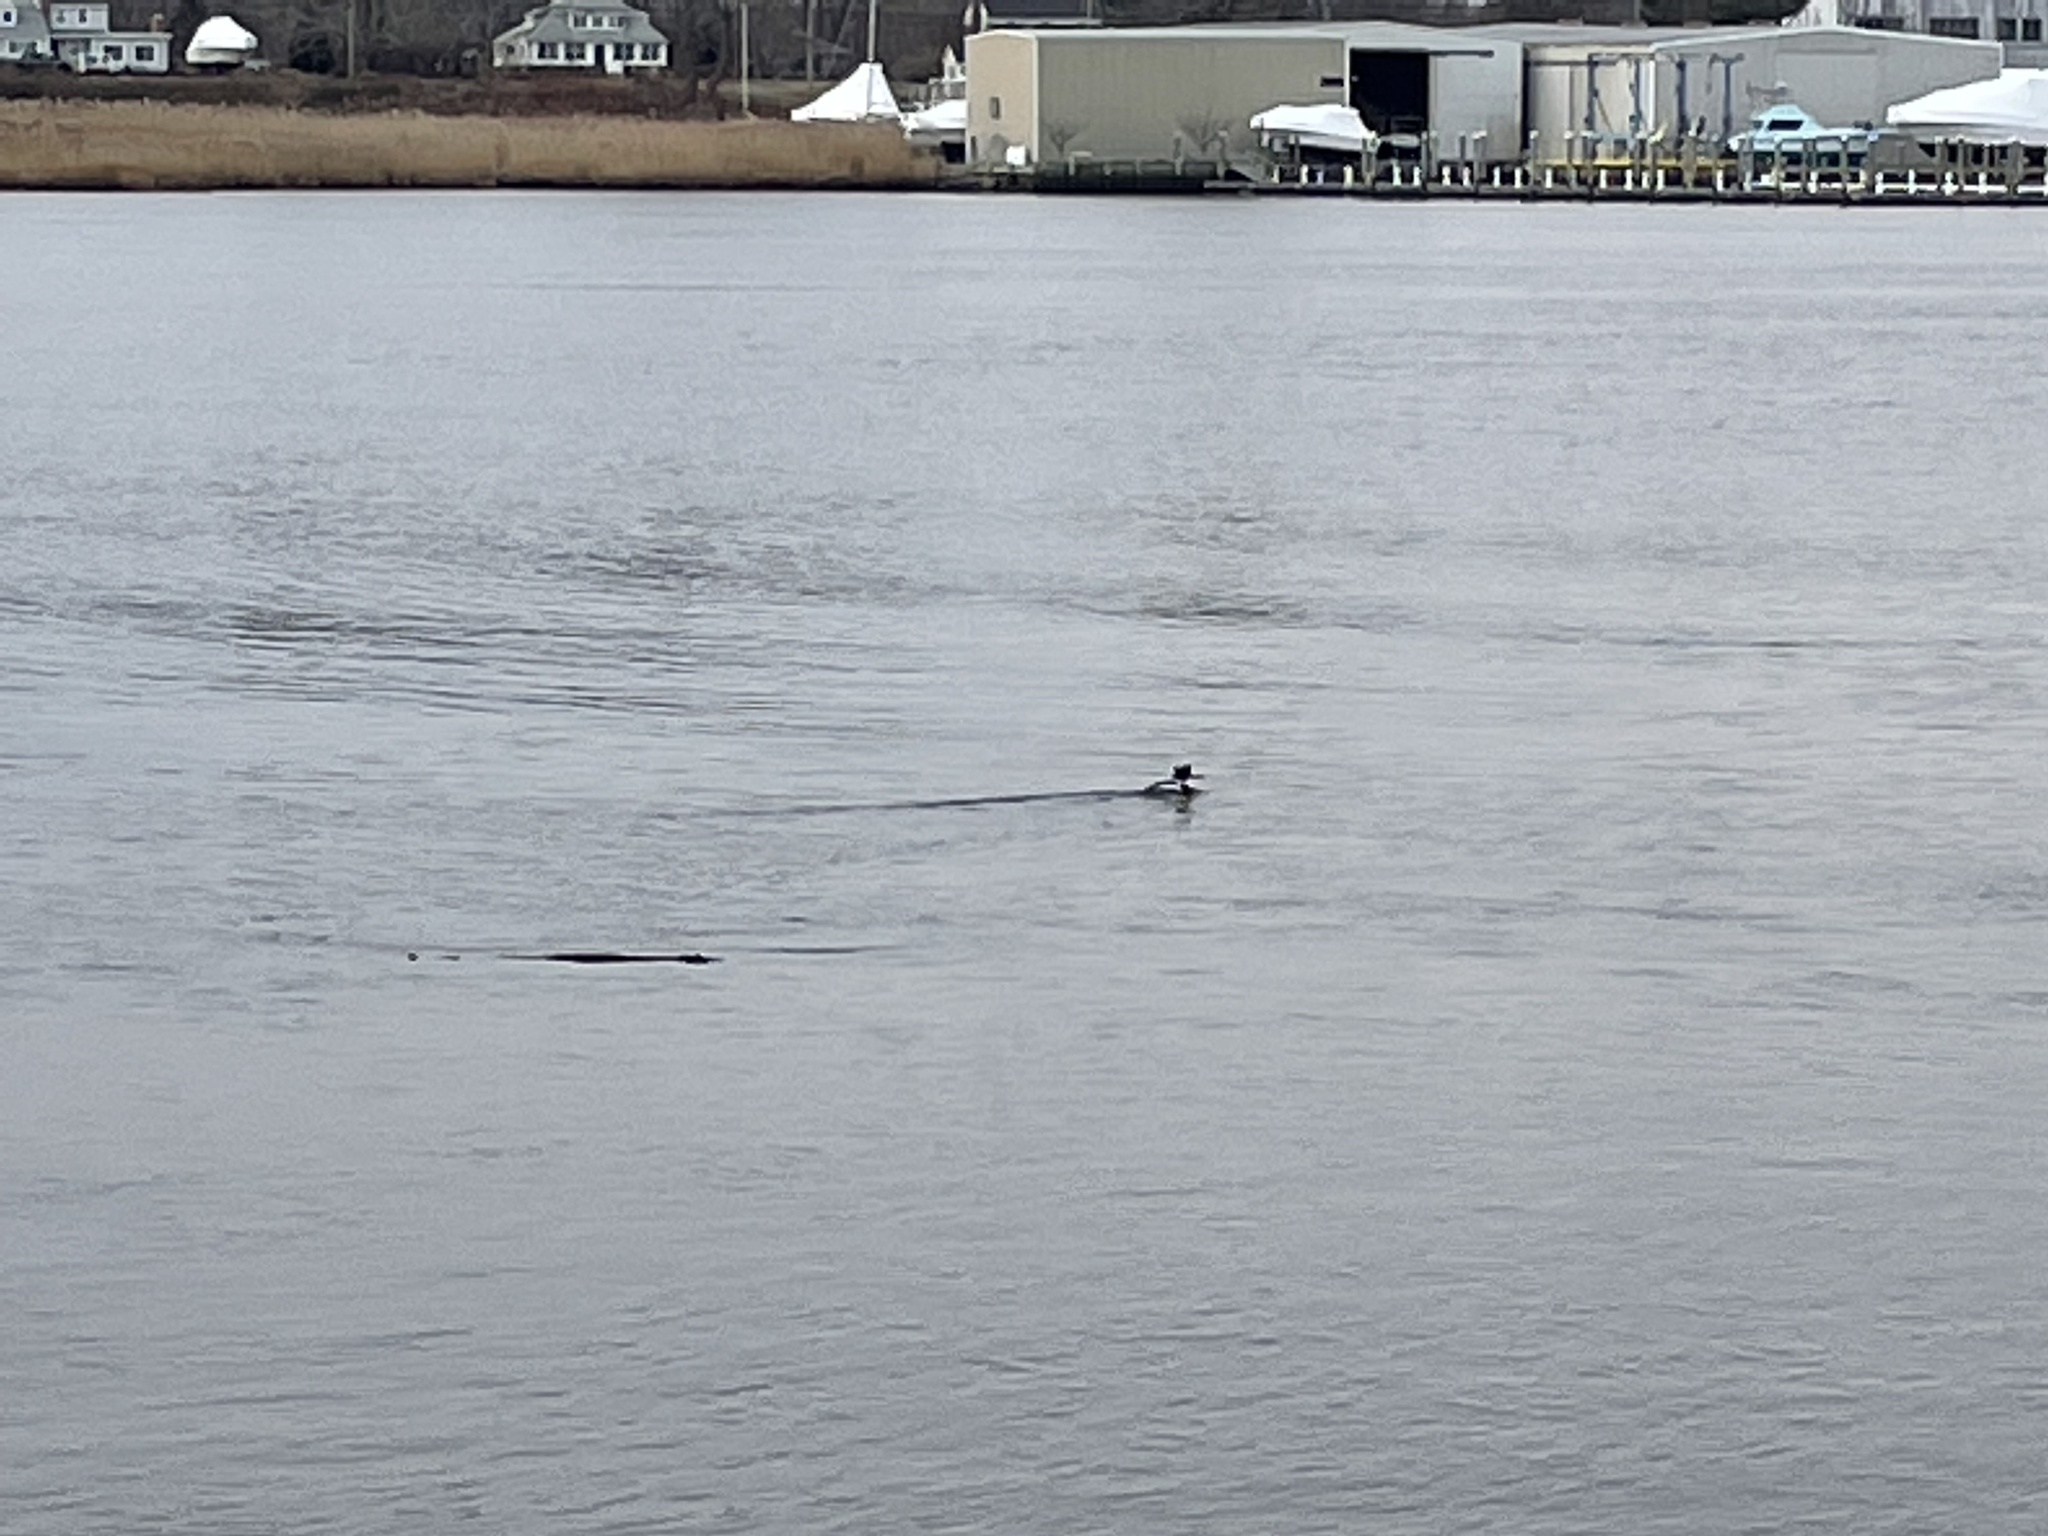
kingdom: Animalia
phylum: Chordata
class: Aves
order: Anseriformes
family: Anatidae
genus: Mergus
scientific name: Mergus serrator
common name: Red-breasted merganser
